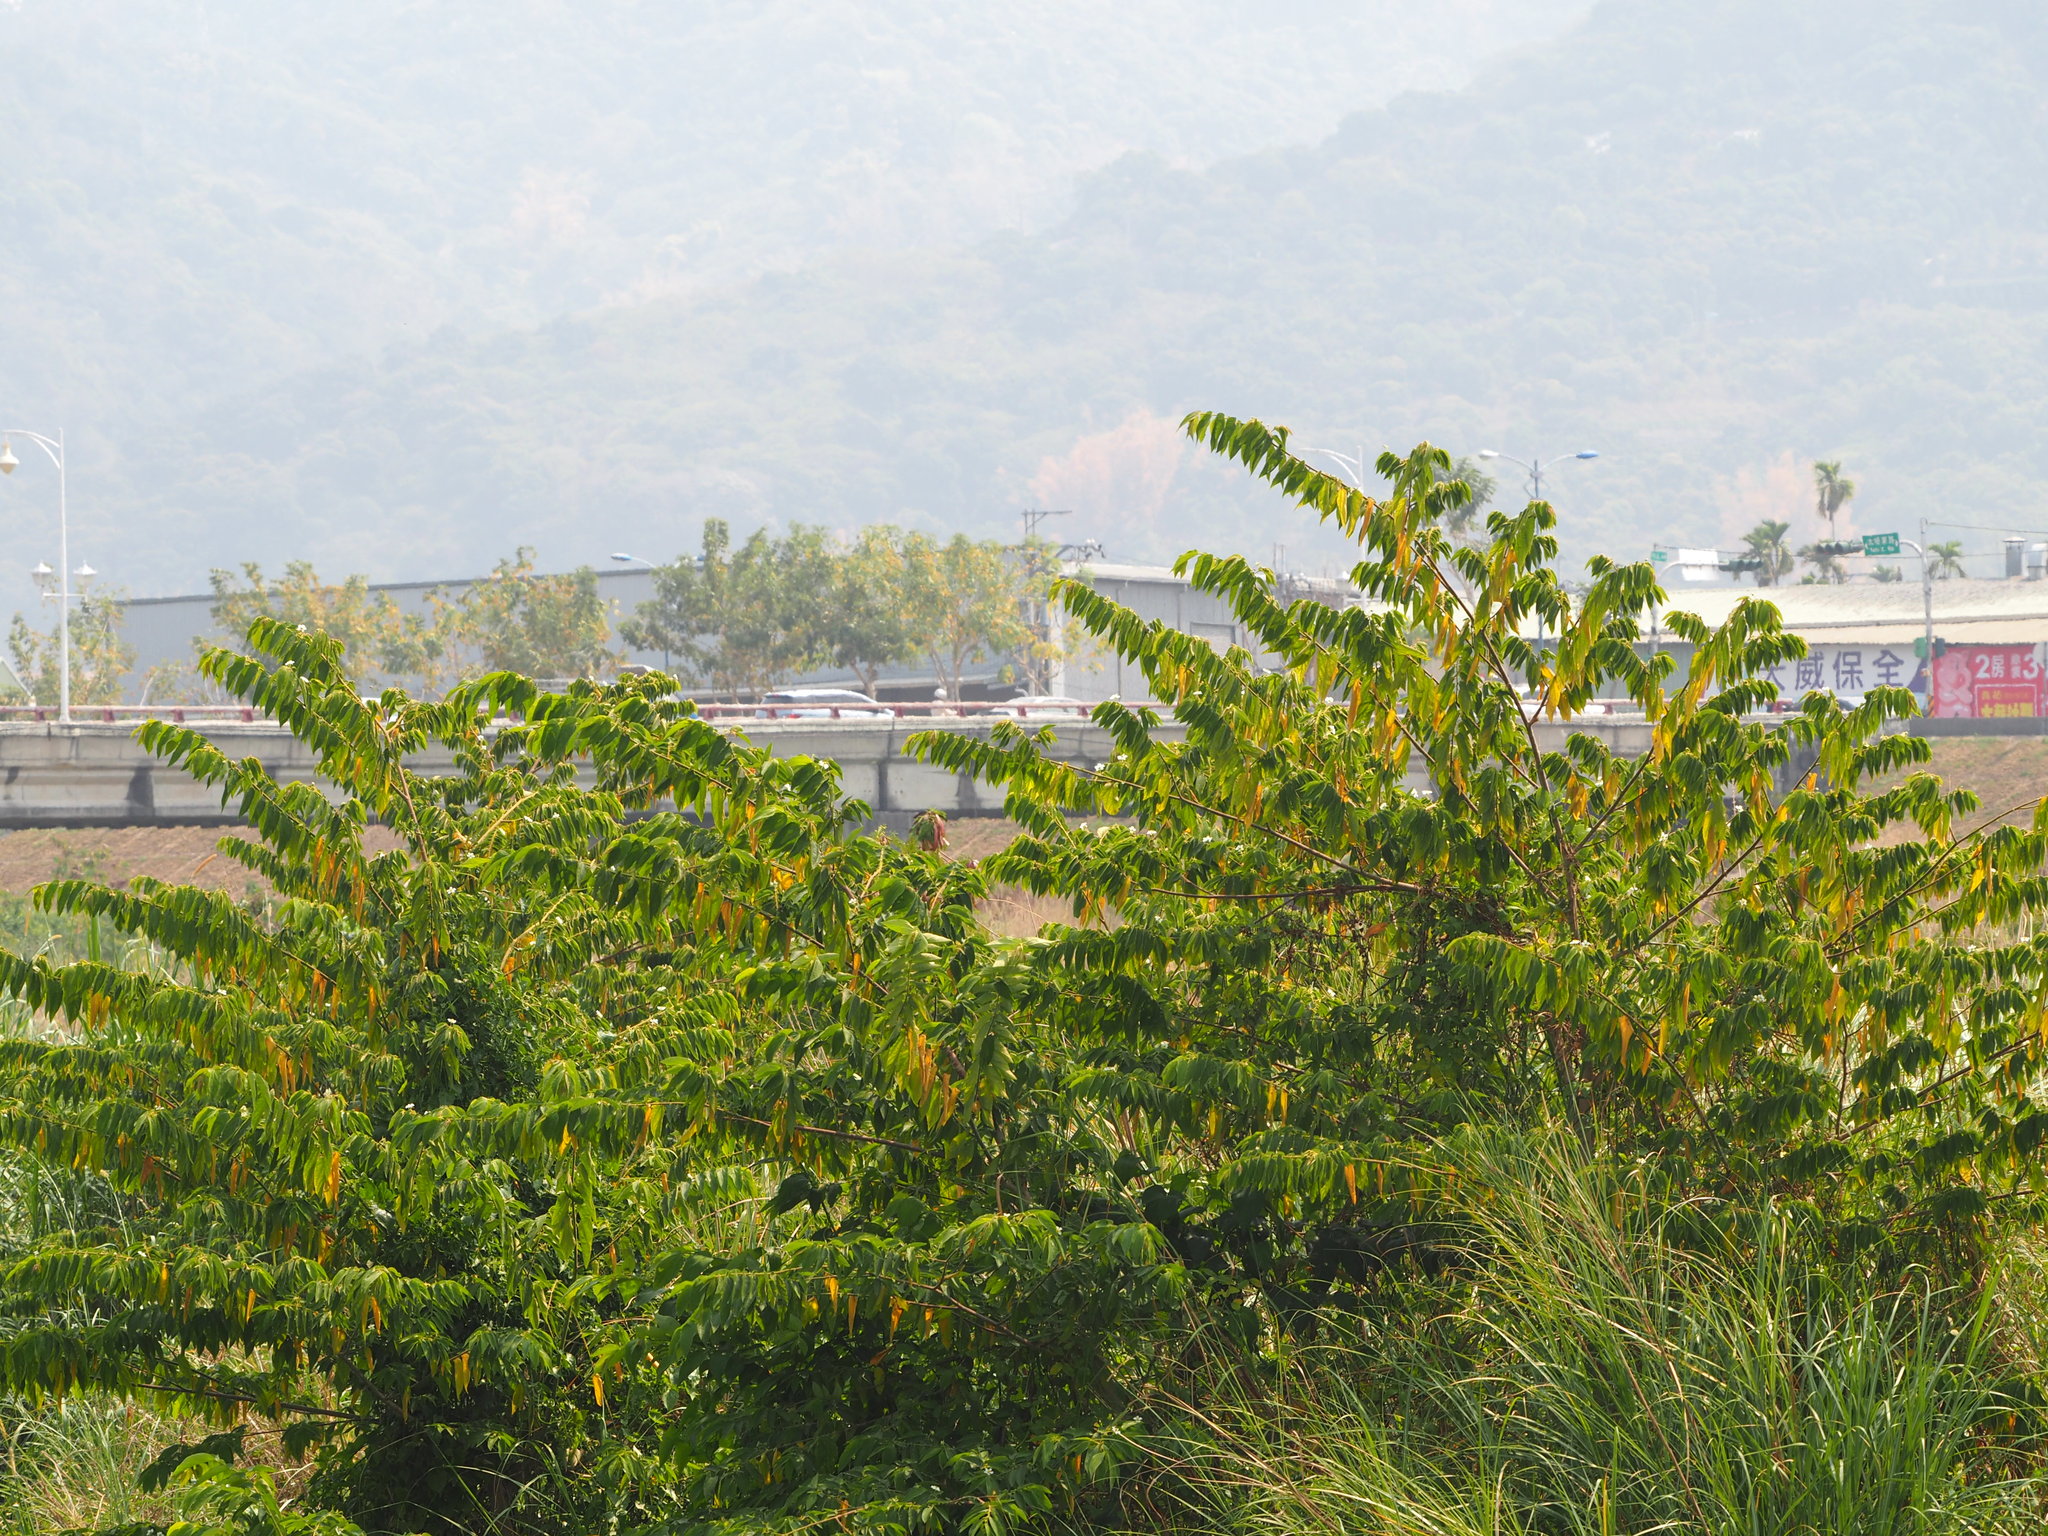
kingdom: Plantae
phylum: Tracheophyta
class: Magnoliopsida
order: Malvales
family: Muntingiaceae
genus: Muntingia
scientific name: Muntingia calabura
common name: Strawberrytree
